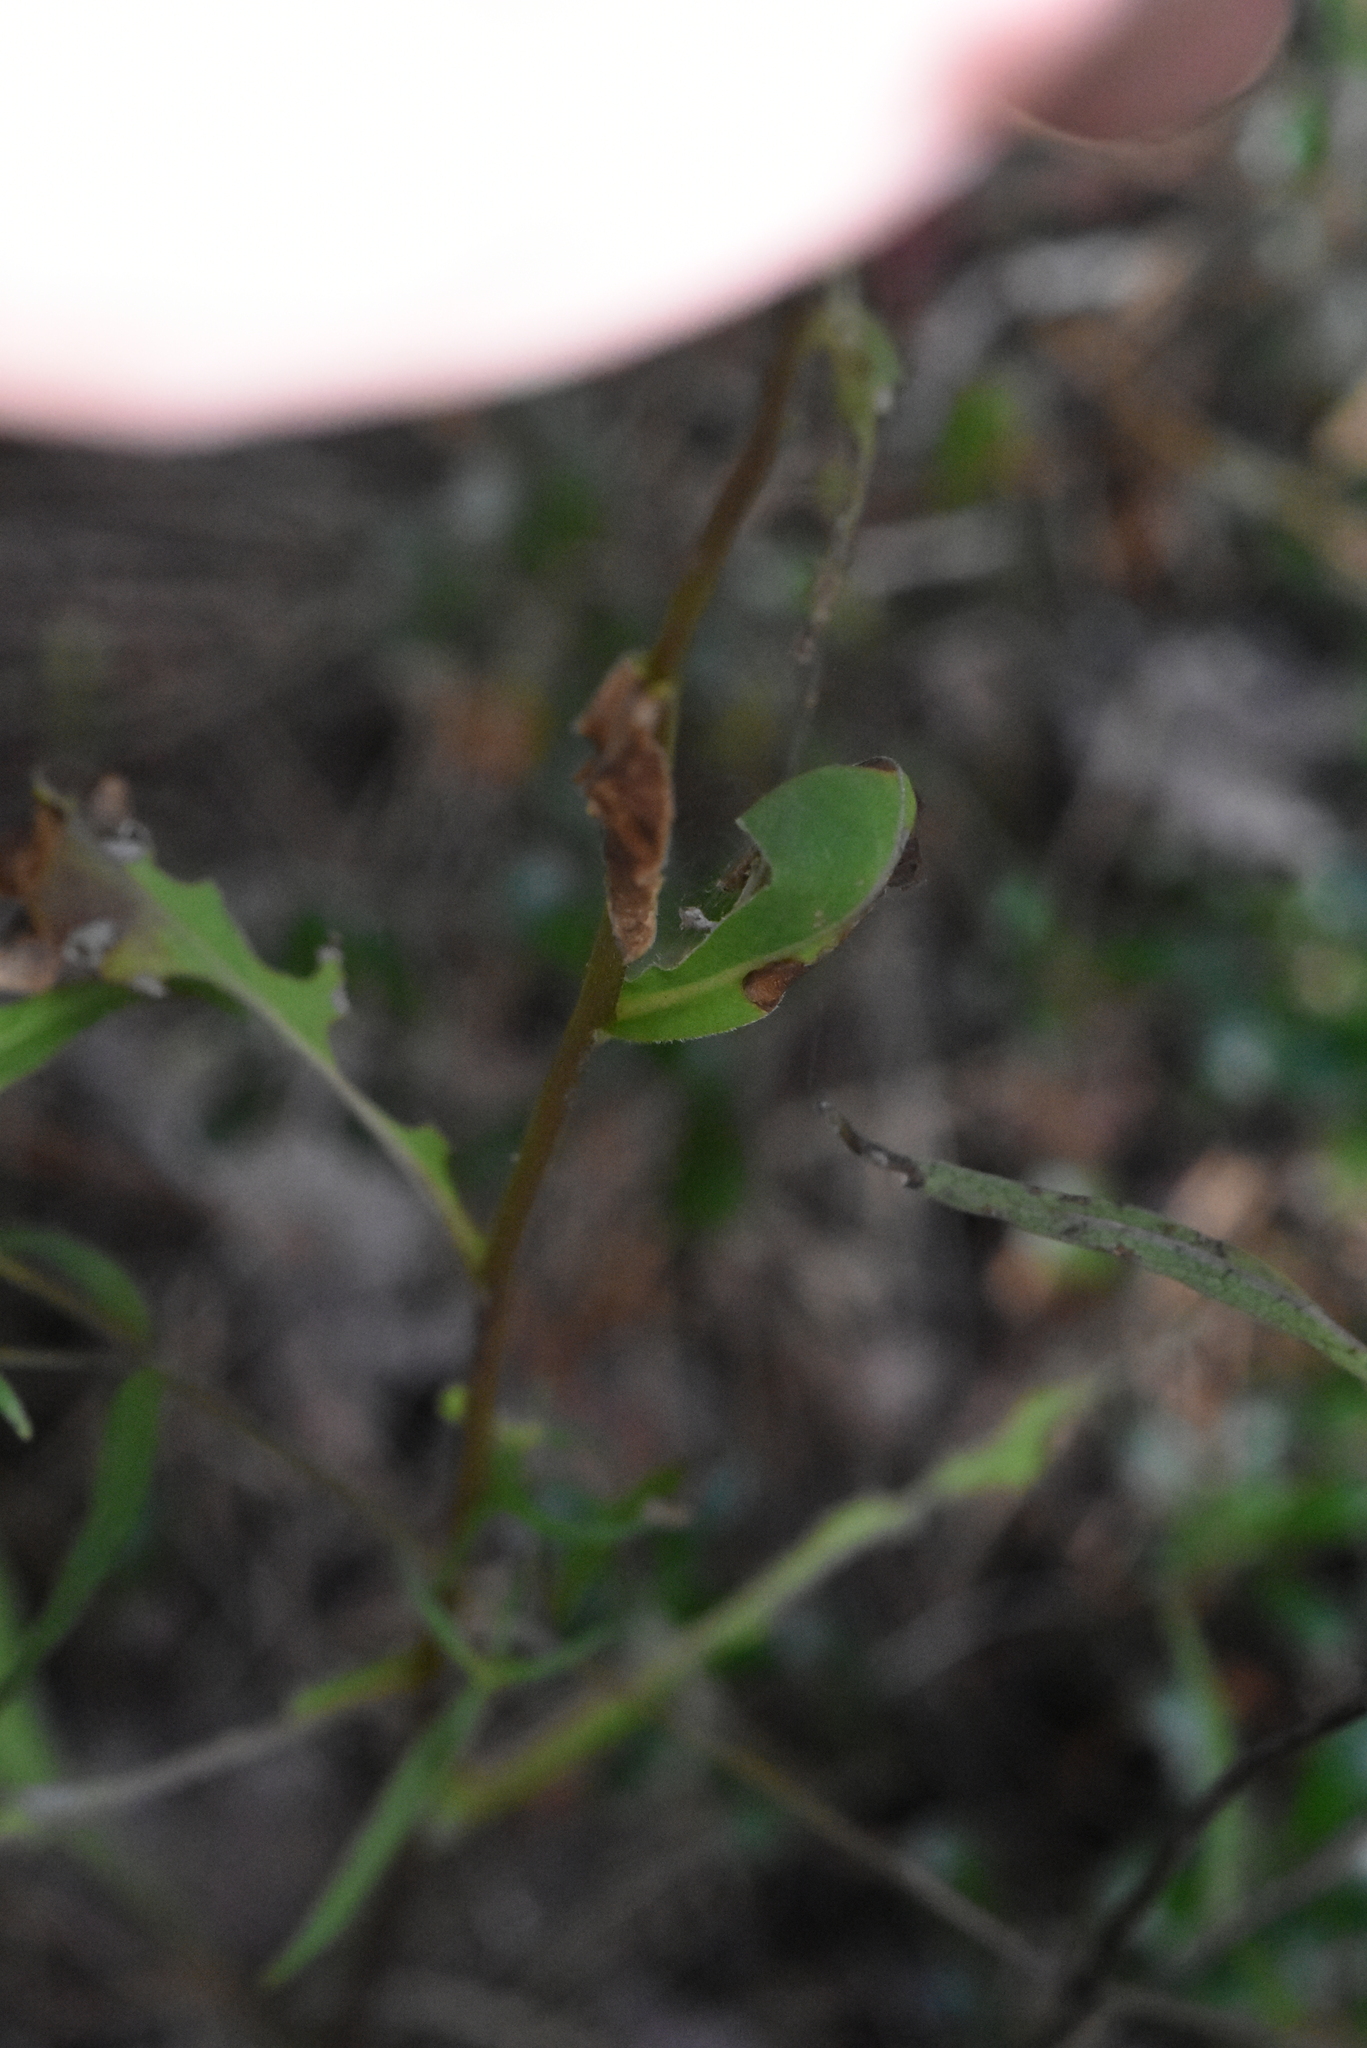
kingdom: Plantae
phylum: Tracheophyta
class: Magnoliopsida
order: Asterales
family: Asteraceae
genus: Solidago
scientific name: Solidago virgaurea
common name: Goldenrod
